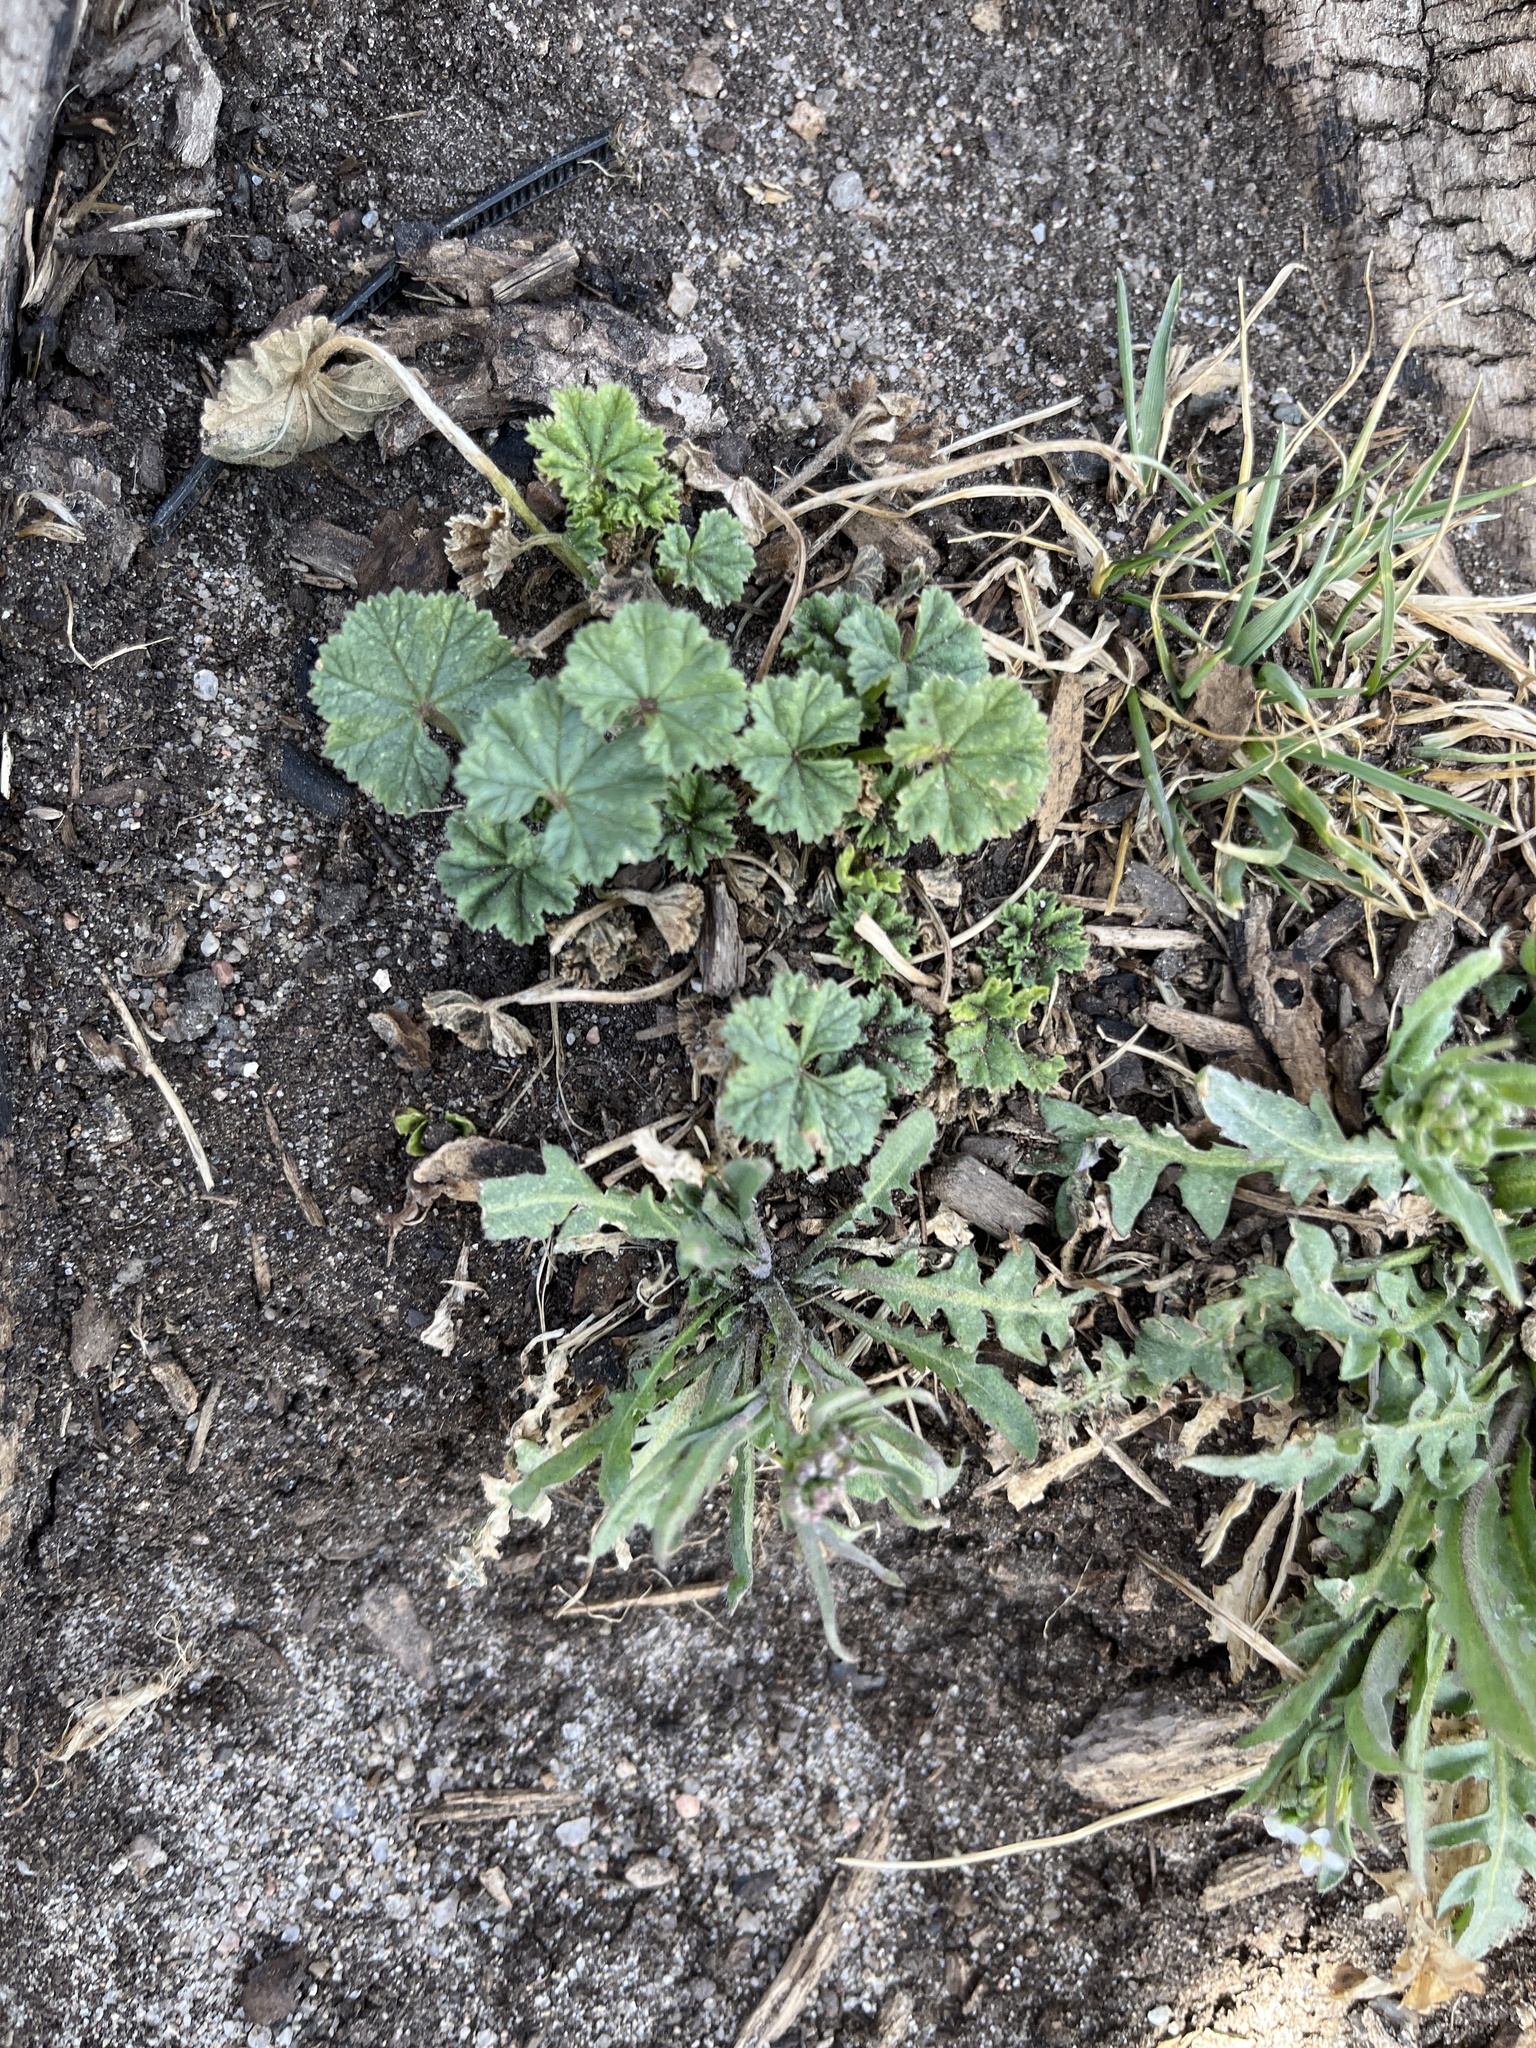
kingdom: Plantae
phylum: Tracheophyta
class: Magnoliopsida
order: Malvales
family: Malvaceae
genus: Malva
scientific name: Malva neglecta
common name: Common mallow
